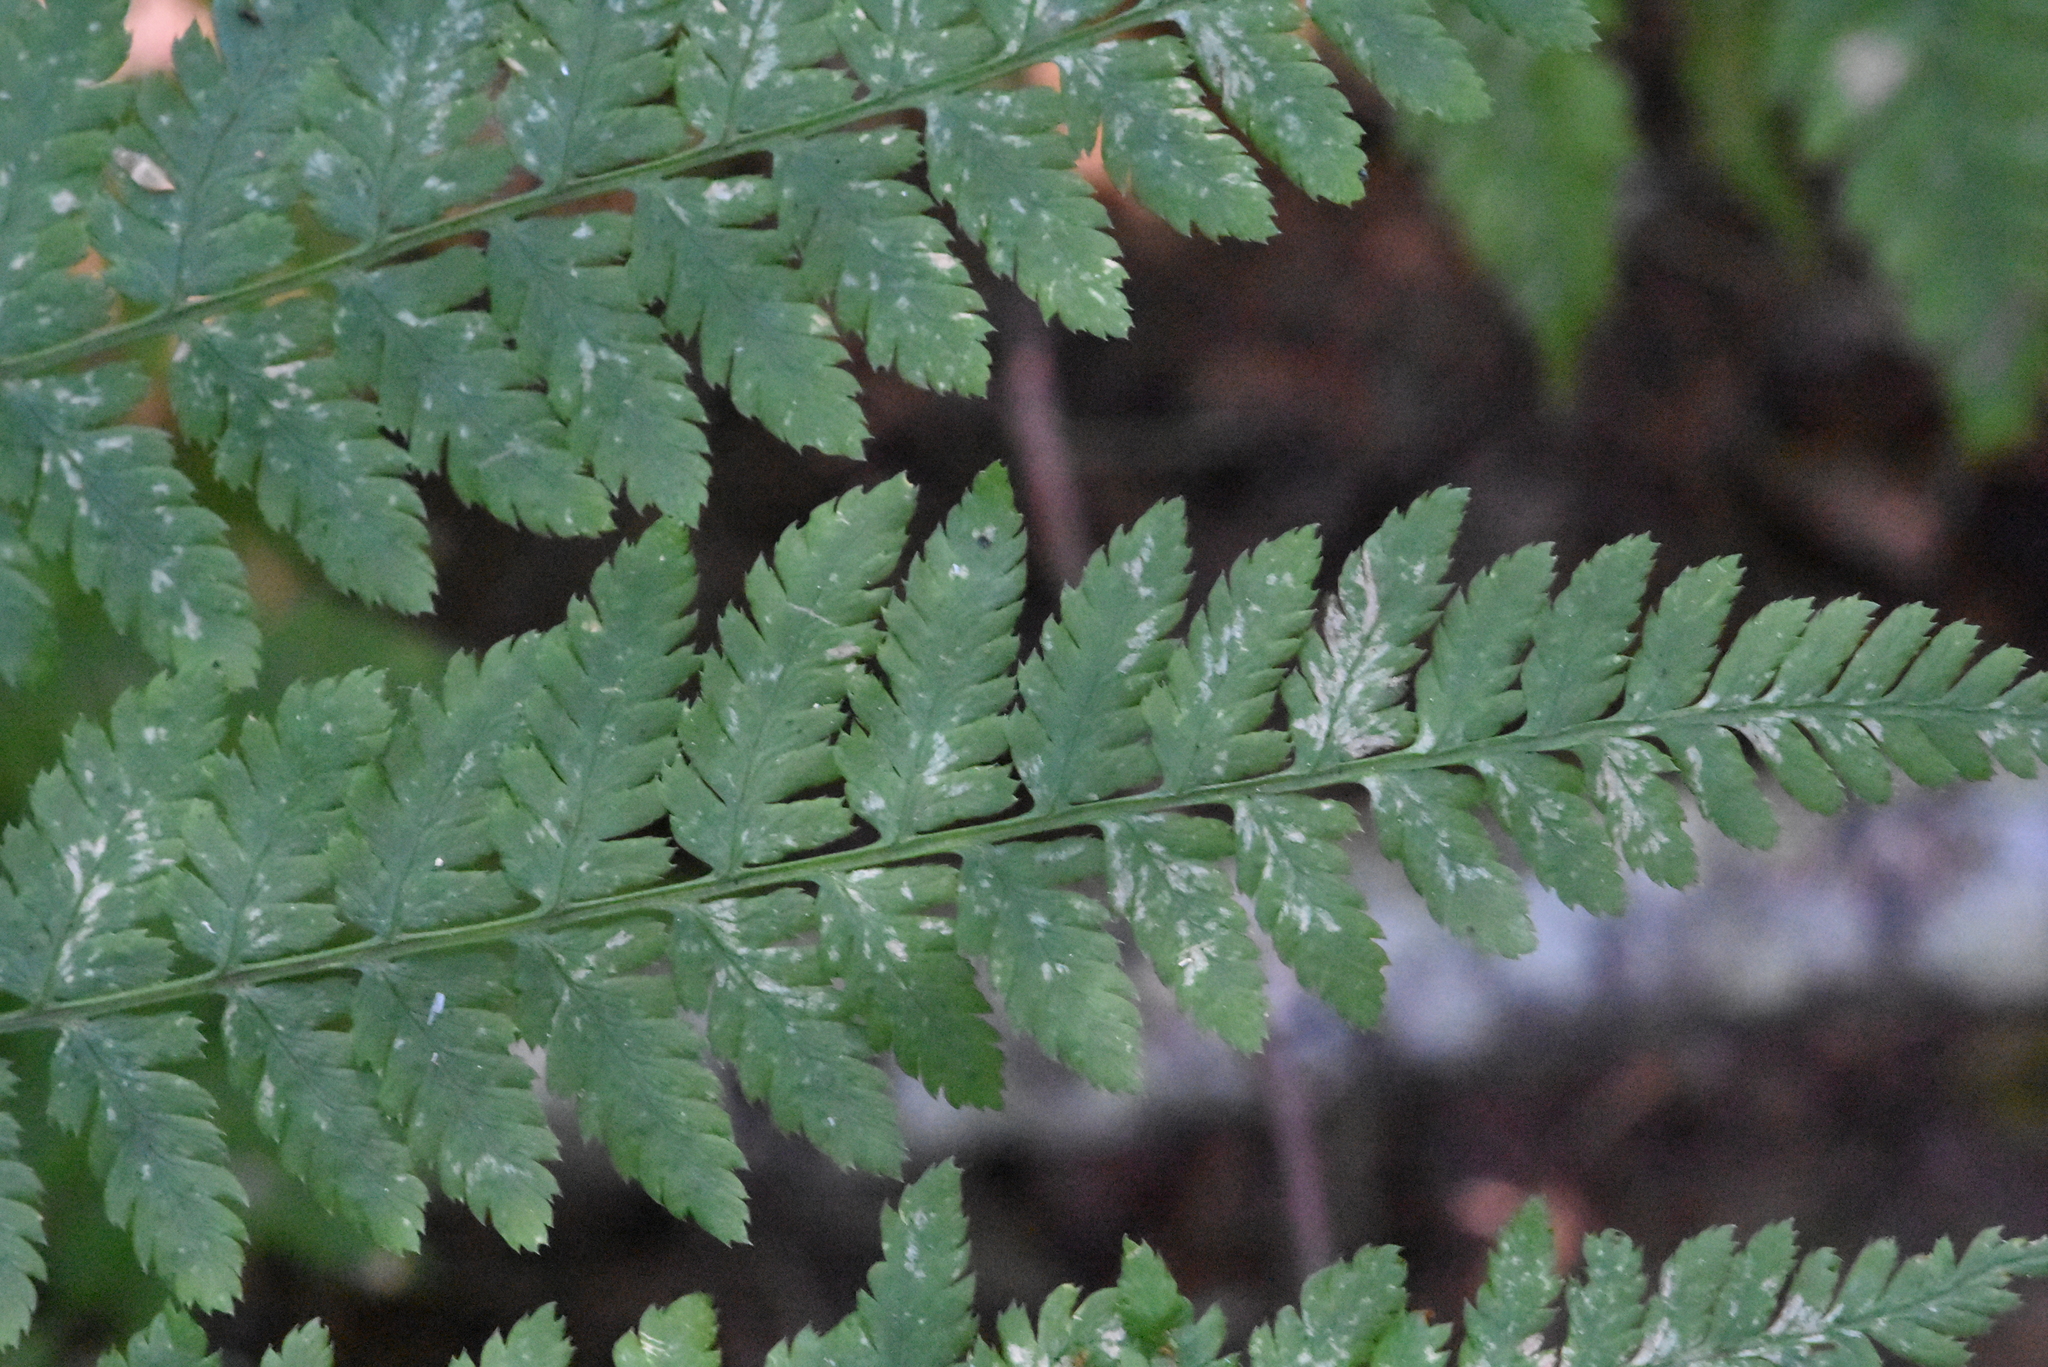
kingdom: Plantae
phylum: Tracheophyta
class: Polypodiopsida
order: Polypodiales
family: Dryopteridaceae
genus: Dryopteris
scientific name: Dryopteris carthusiana
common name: Narrow buckler-fern
